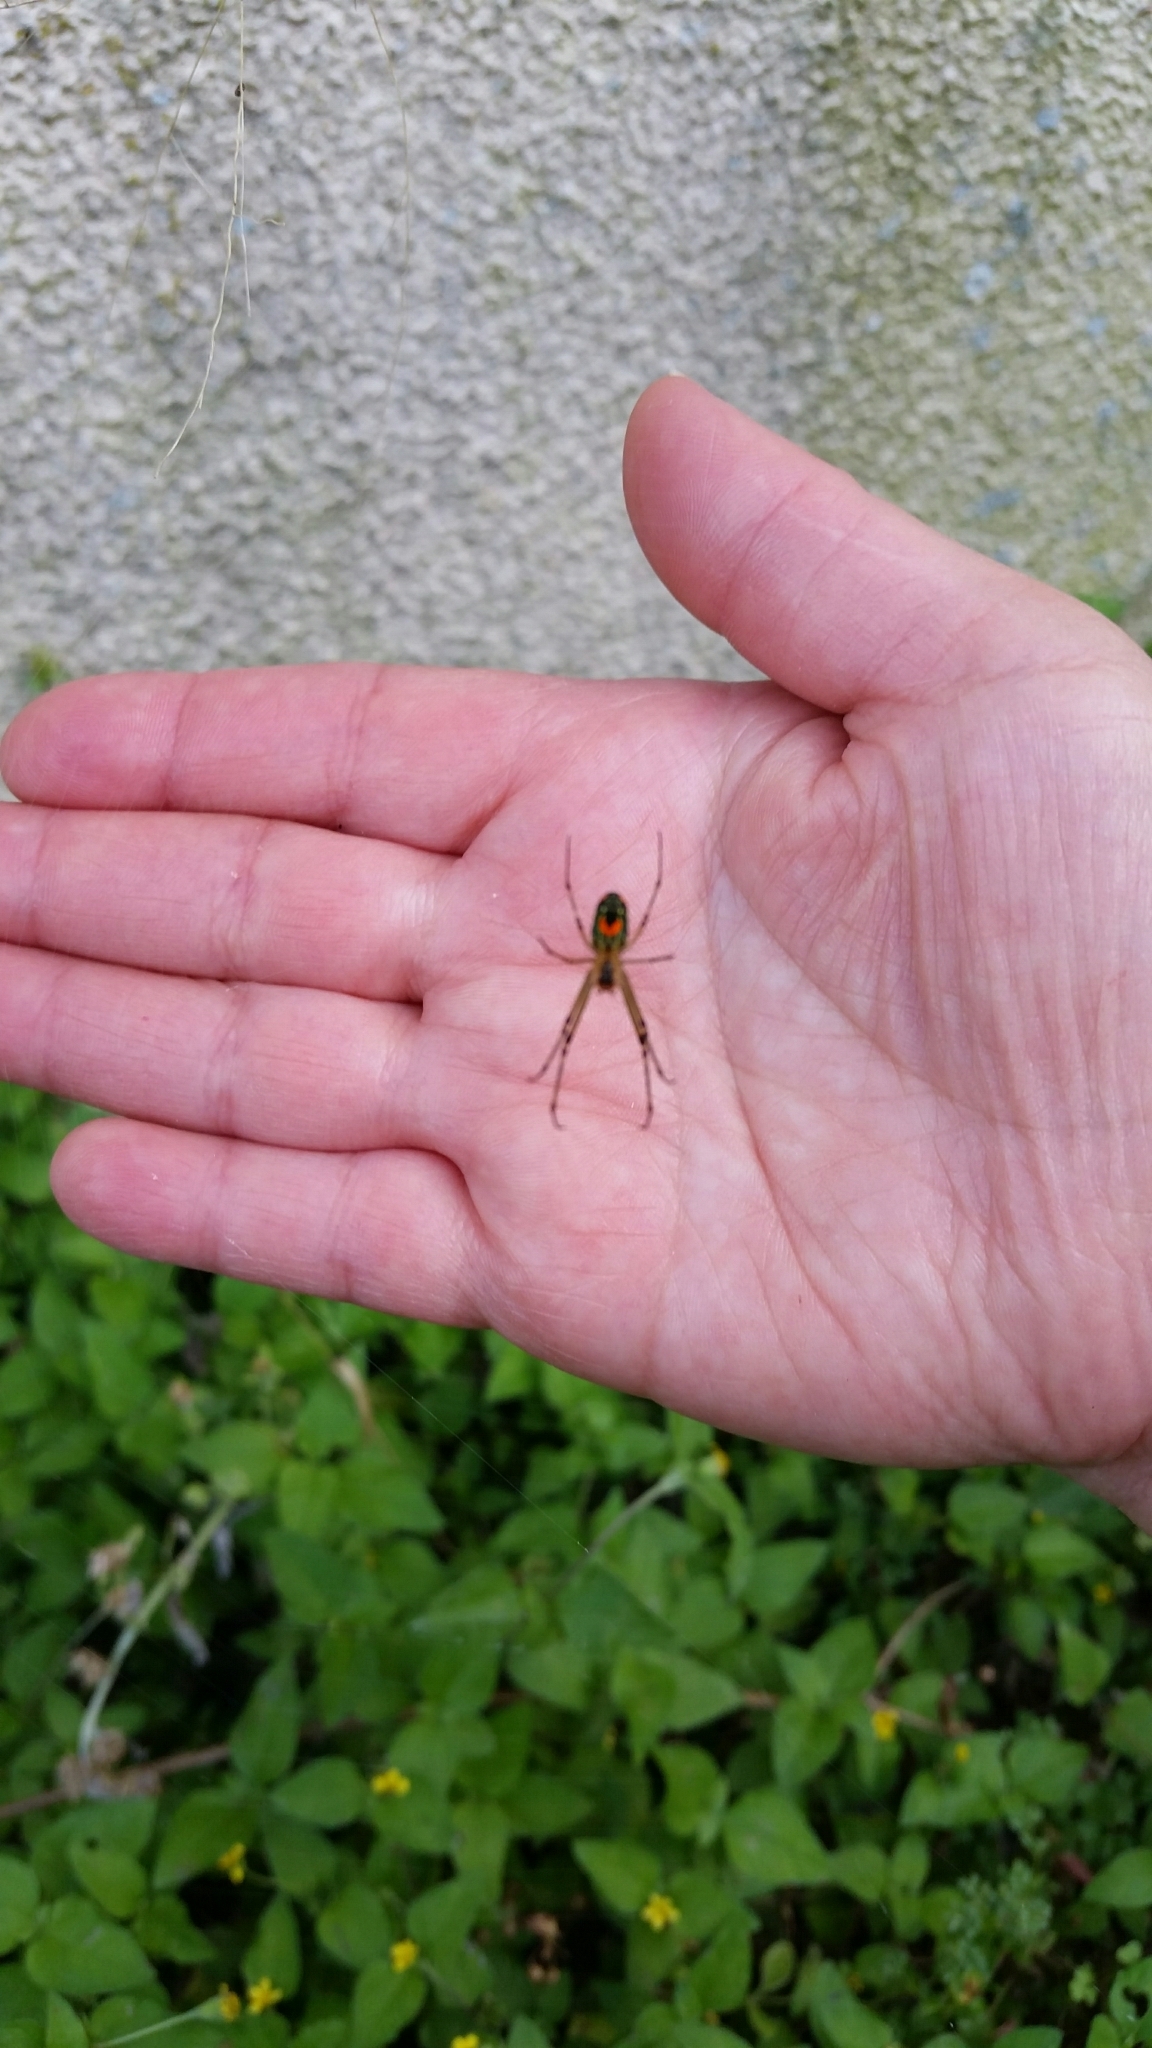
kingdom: Animalia
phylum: Arthropoda
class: Arachnida
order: Araneae
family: Tetragnathidae
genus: Leucauge
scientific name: Leucauge argyrobapta
